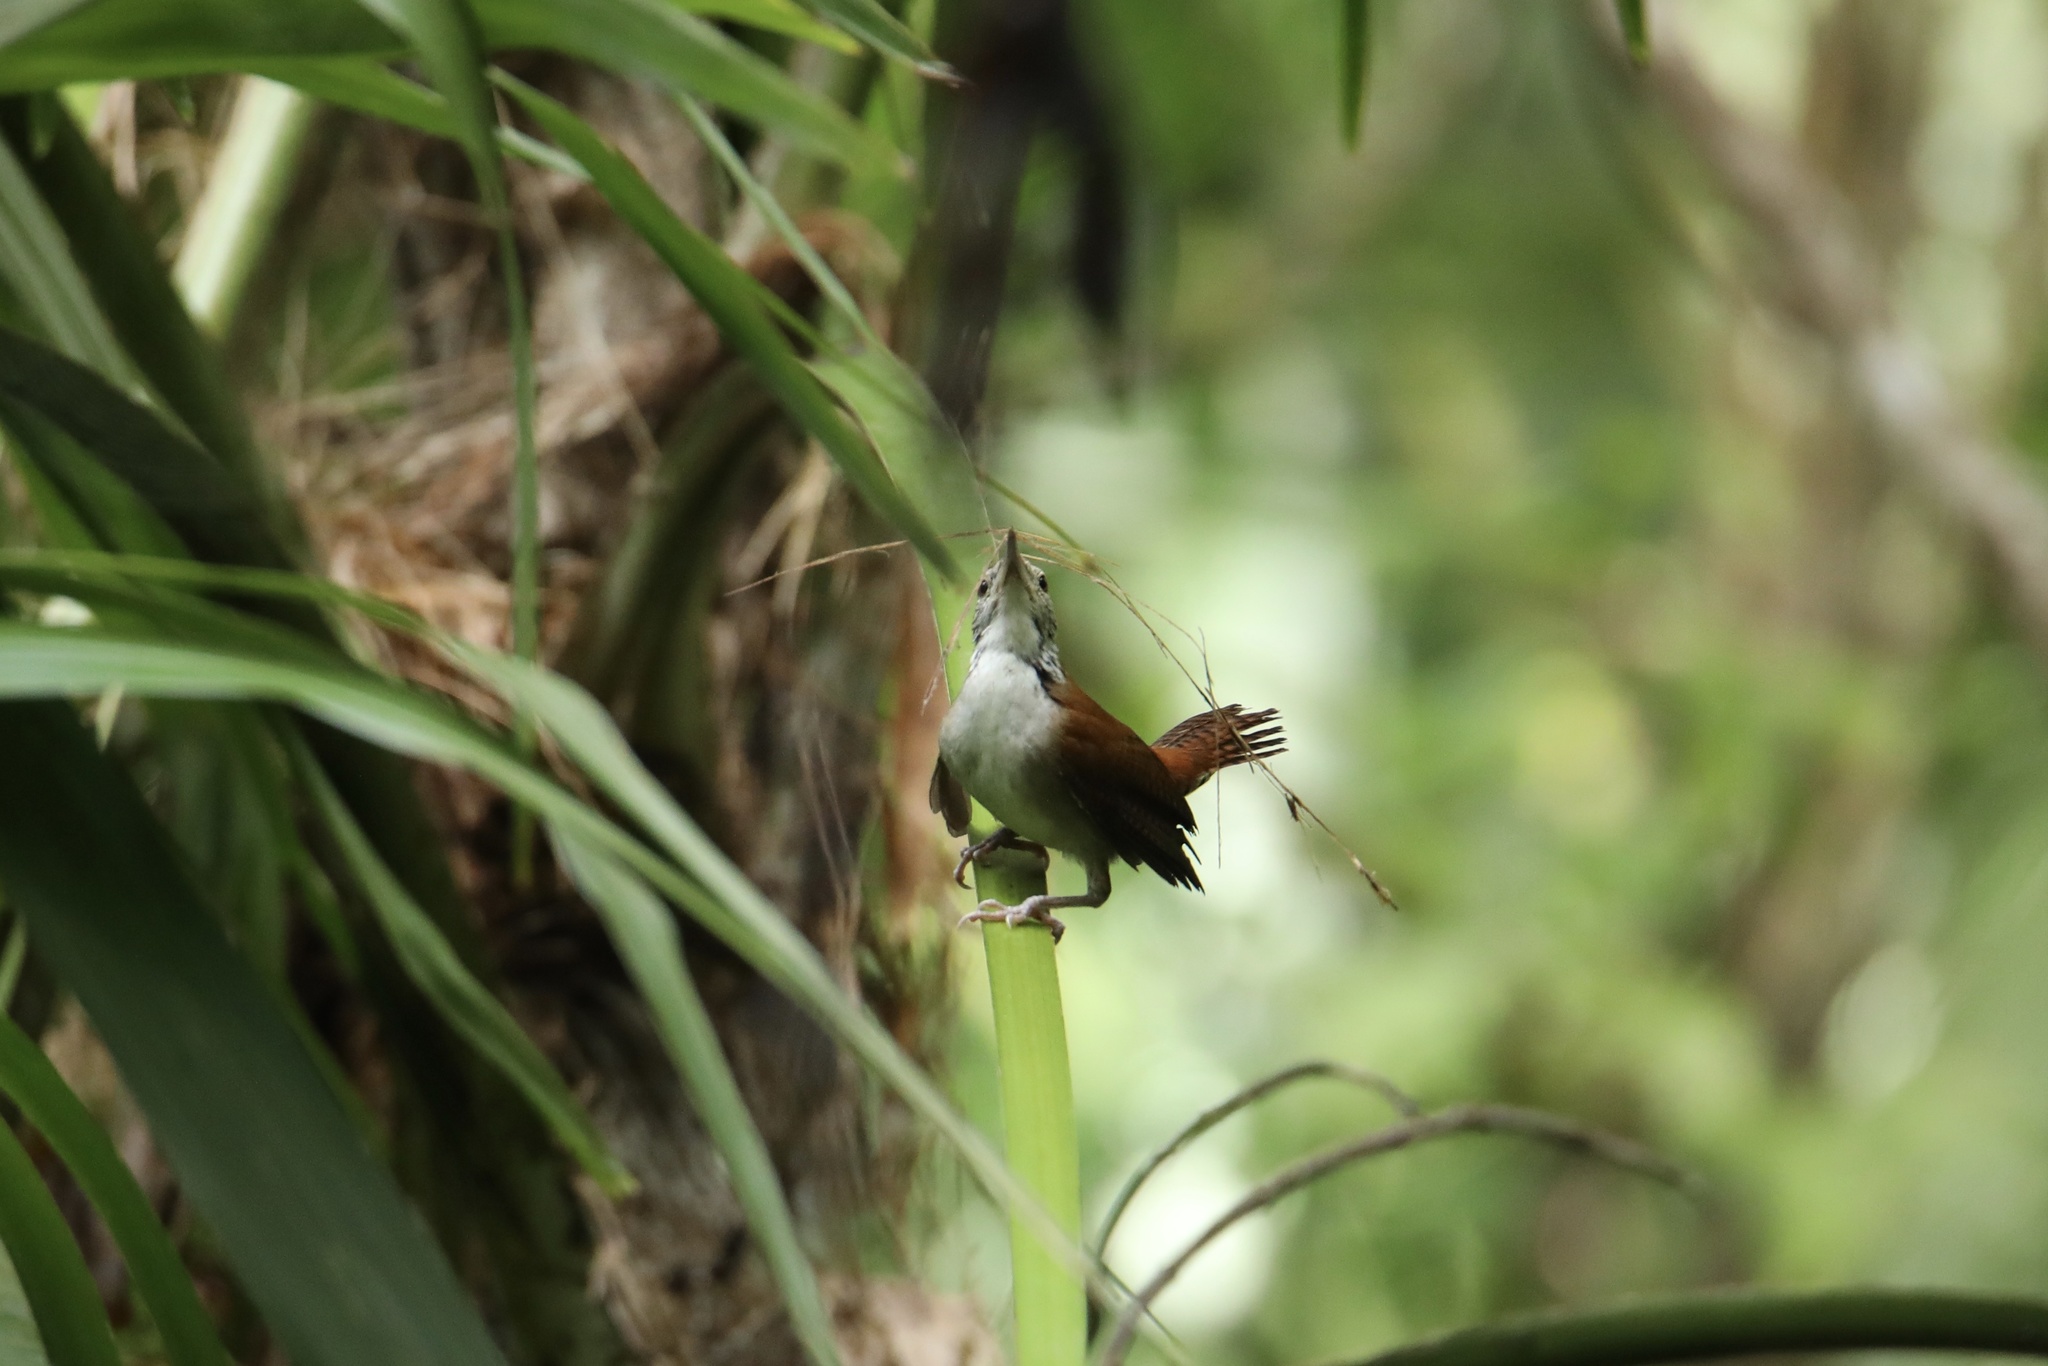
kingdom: Animalia
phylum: Chordata
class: Aves
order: Passeriformes
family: Troglodytidae
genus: Thryophilus
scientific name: Thryophilus rufalbus
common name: Rufous-and-white wren
